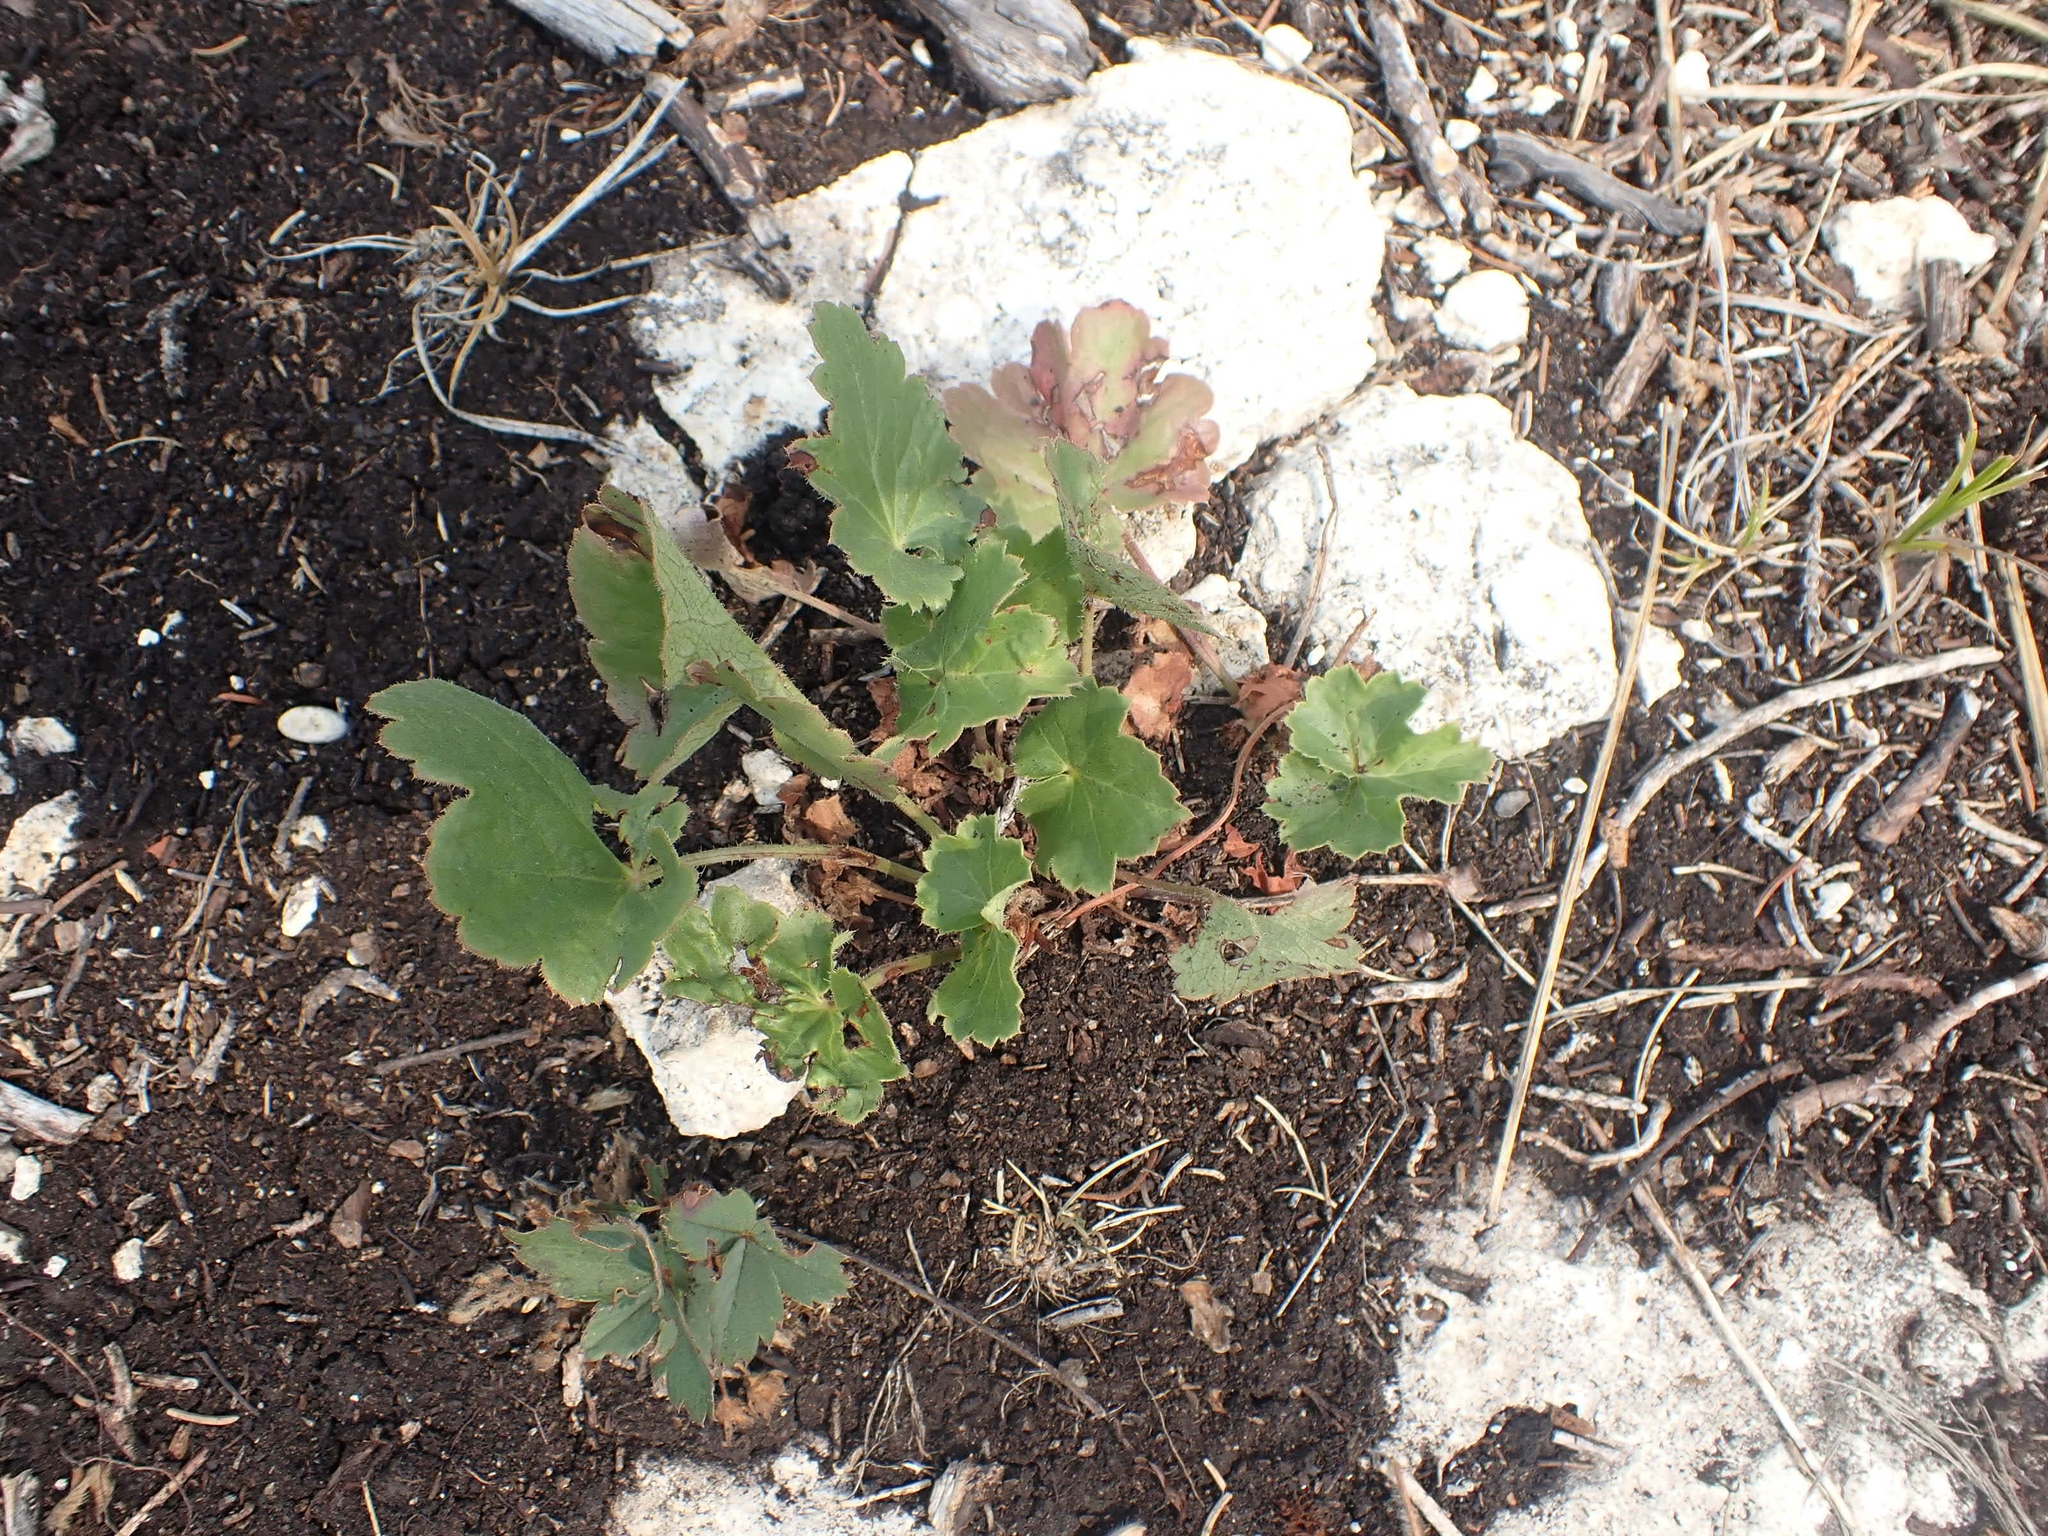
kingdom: Plantae
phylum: Tracheophyta
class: Magnoliopsida
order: Saxifragales
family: Saxifragaceae
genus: Heuchera
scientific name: Heuchera richardsonii
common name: Richardson's alumroot
